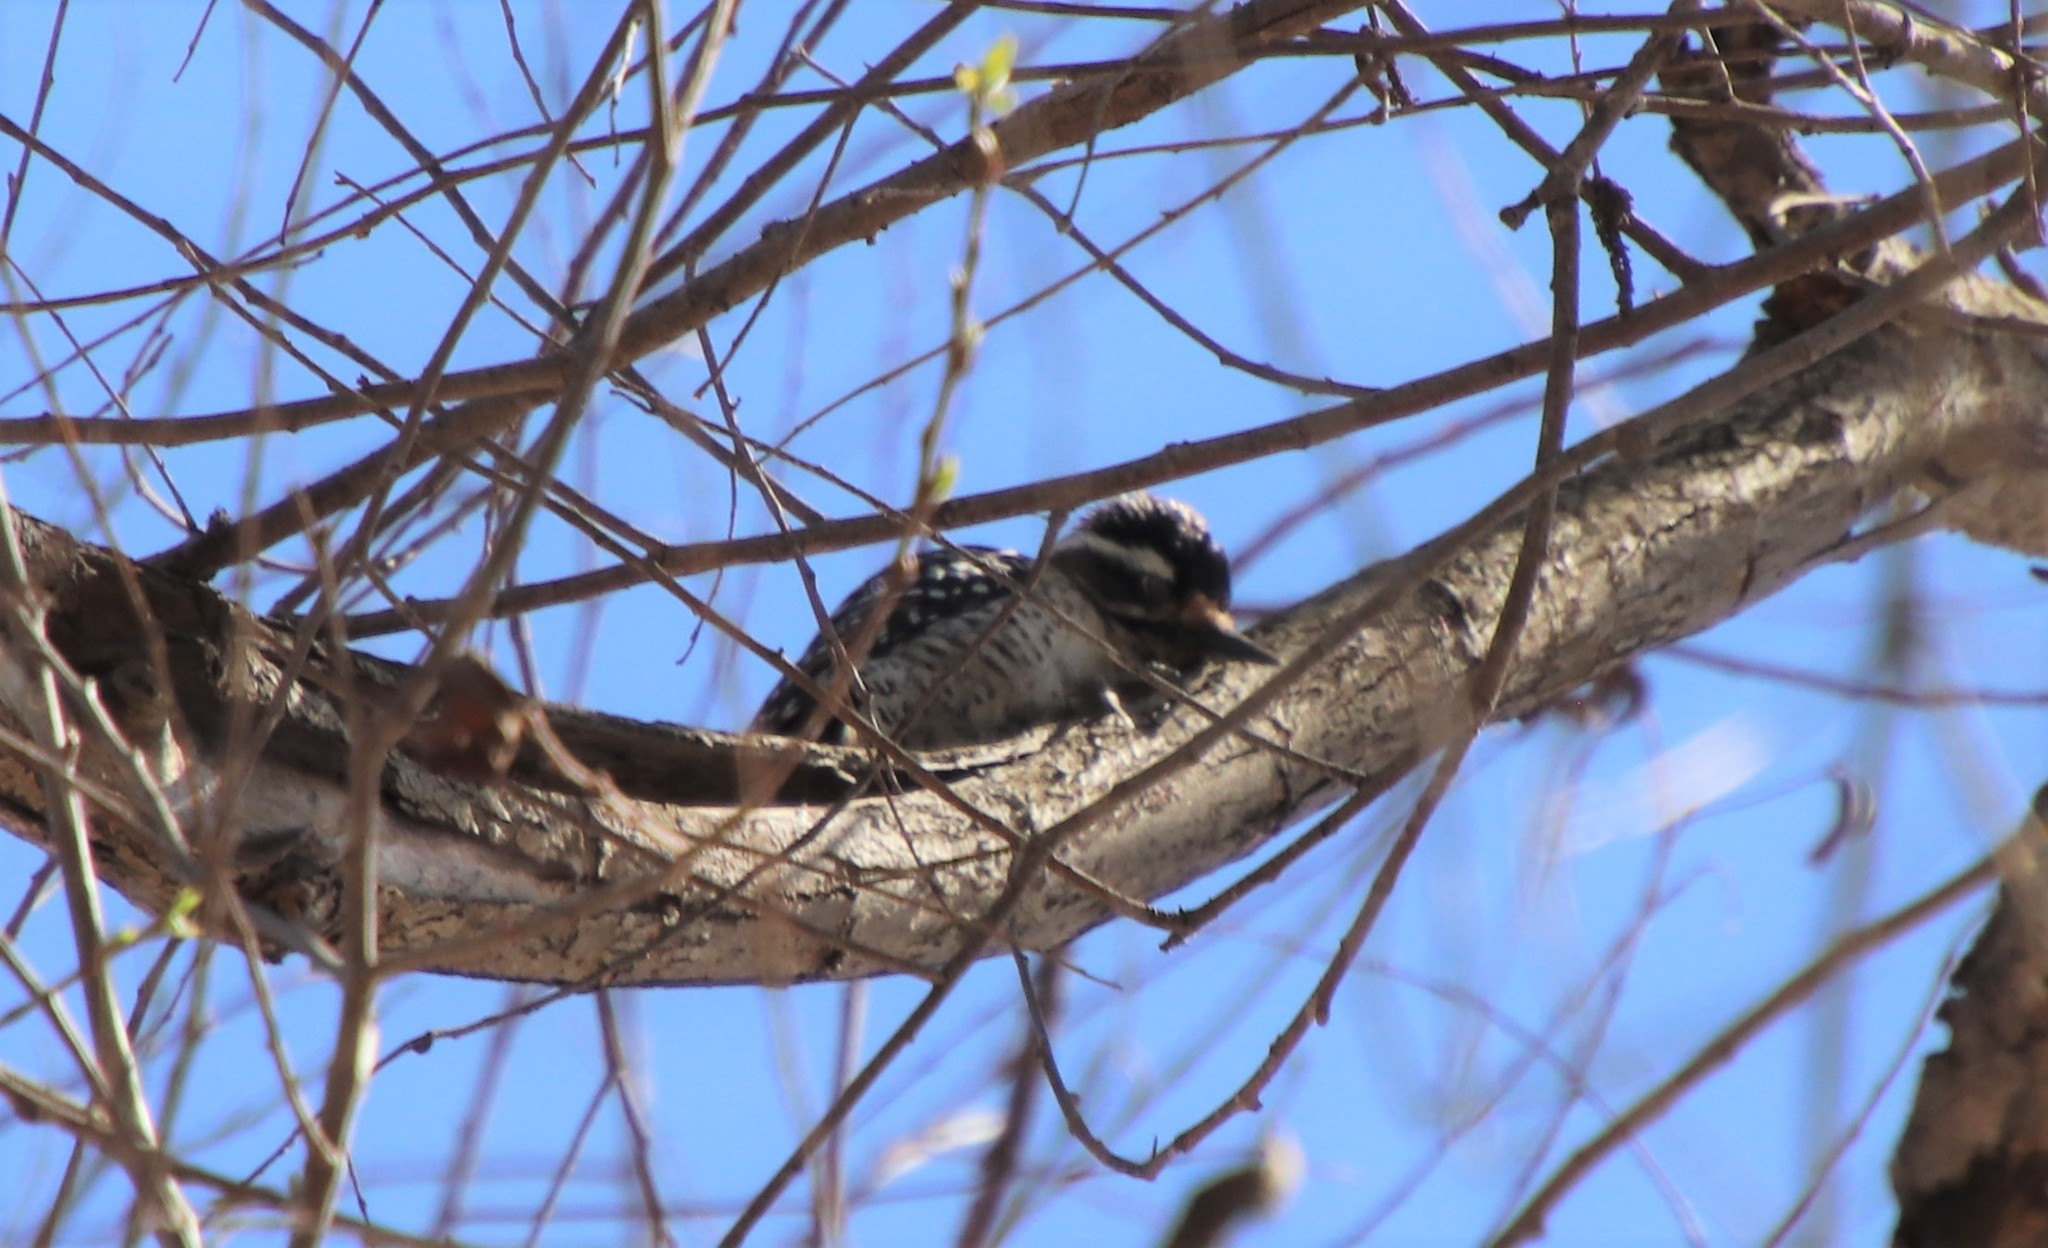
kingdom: Animalia
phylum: Chordata
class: Aves
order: Piciformes
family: Picidae
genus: Dryobates
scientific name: Dryobates nuttallii
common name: Nuttall's woodpecker
